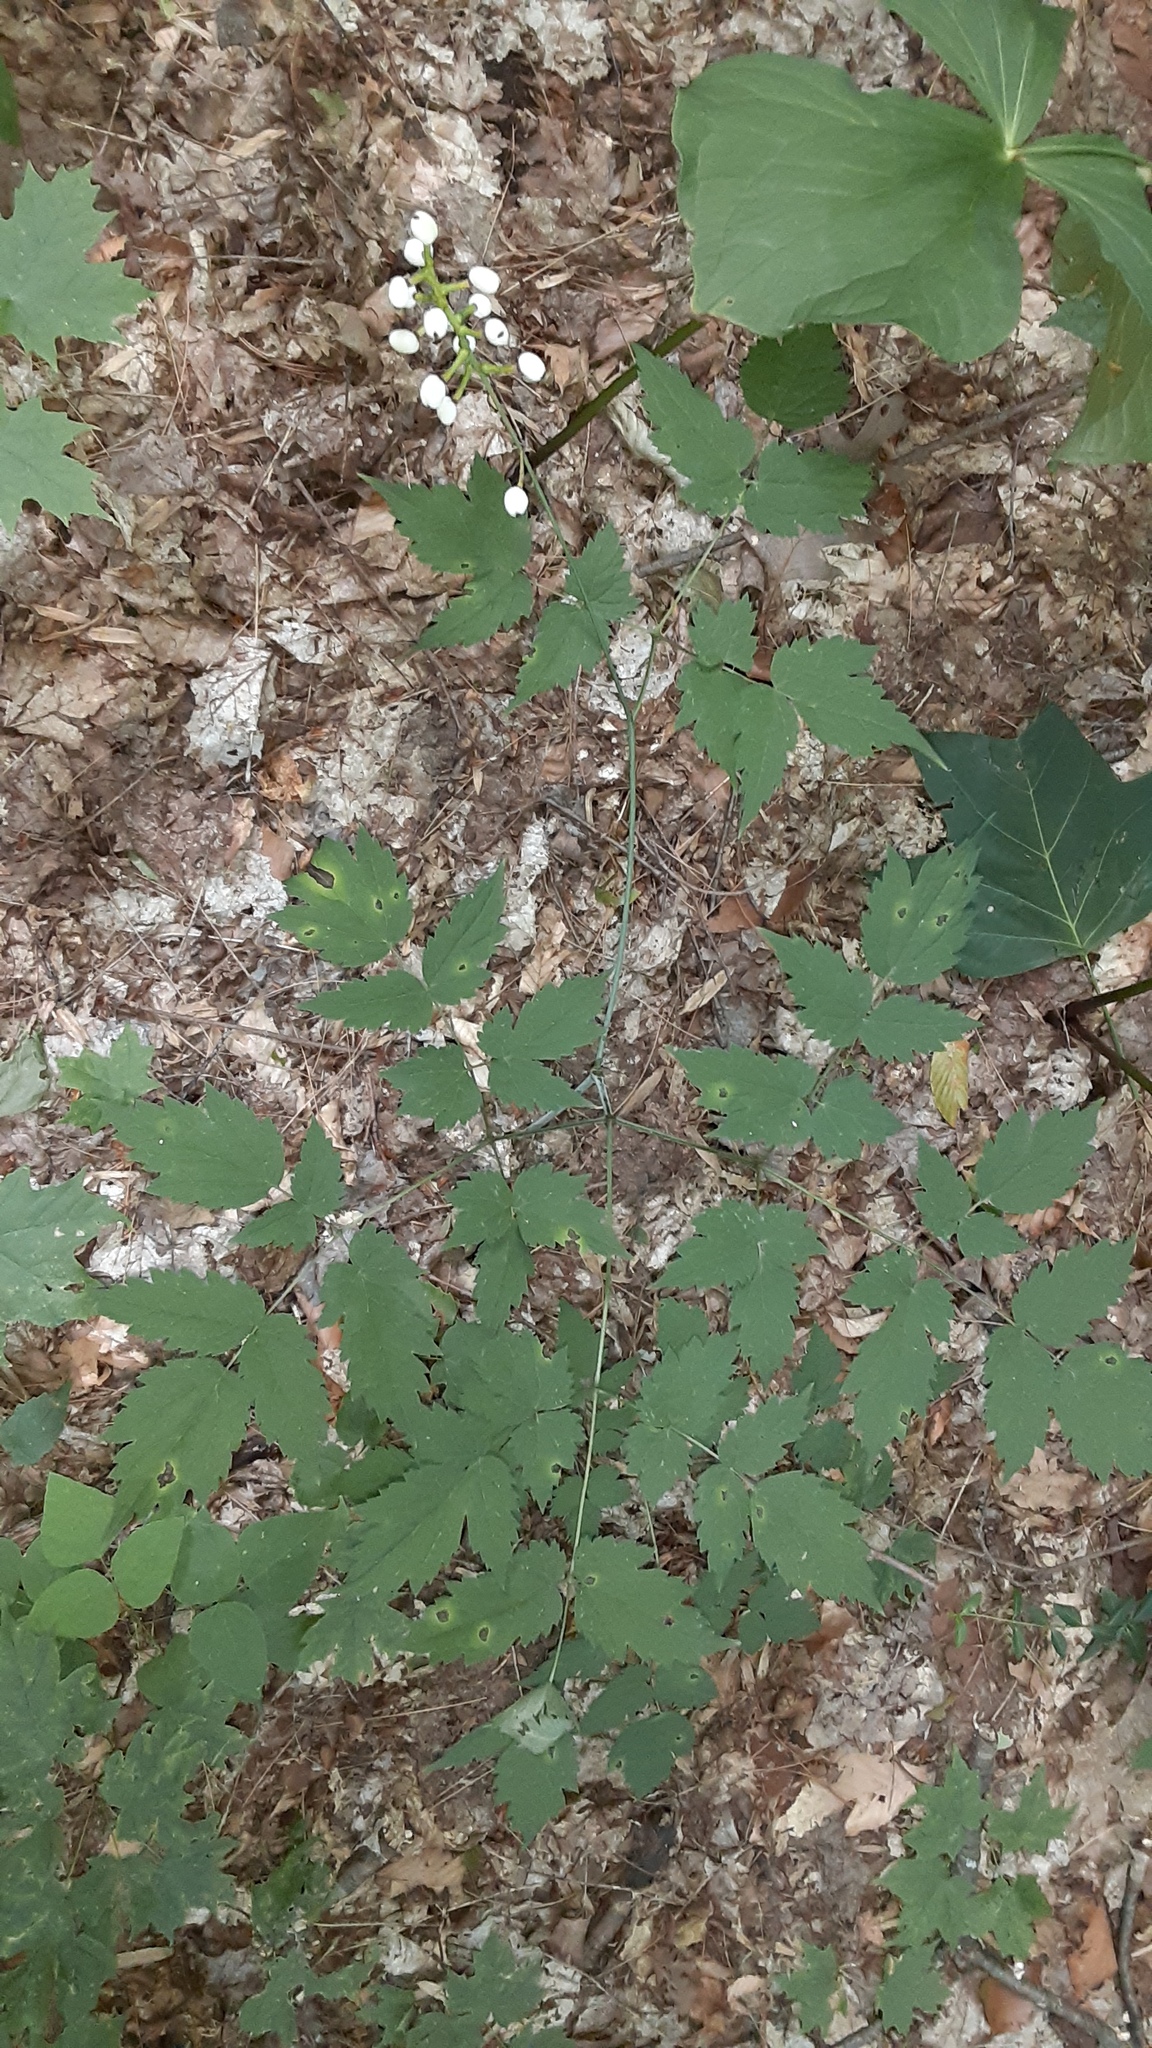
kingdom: Plantae
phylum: Tracheophyta
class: Magnoliopsida
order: Ranunculales
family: Ranunculaceae
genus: Actaea
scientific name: Actaea pachypoda
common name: Doll's-eyes
